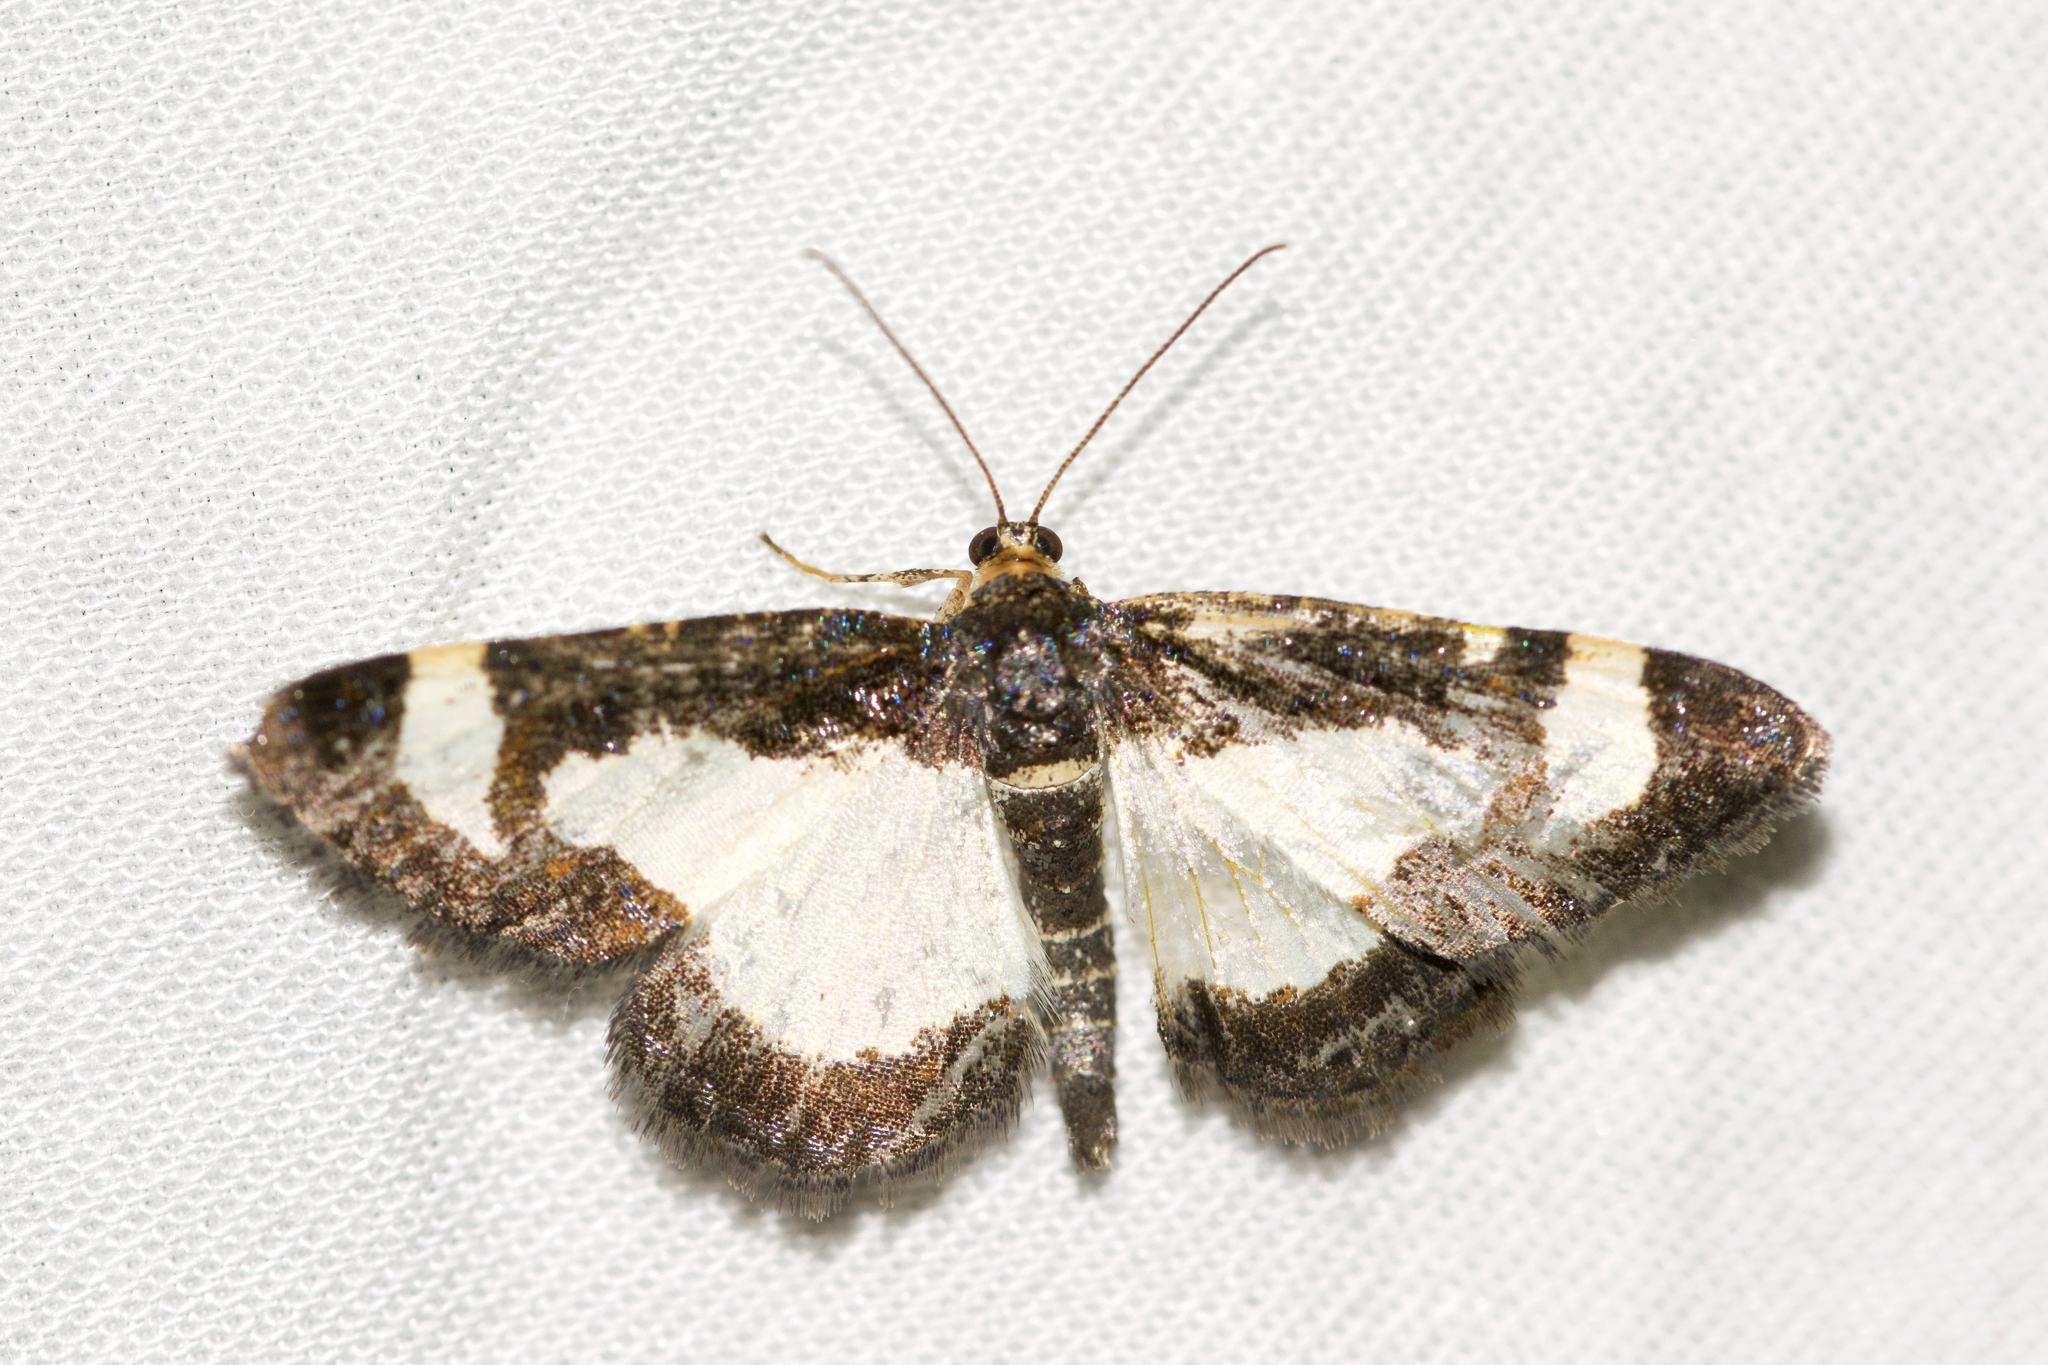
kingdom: Animalia
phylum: Arthropoda
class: Insecta
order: Lepidoptera
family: Geometridae
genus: Heliomata
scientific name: Heliomata cycladata
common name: Common spring moth
